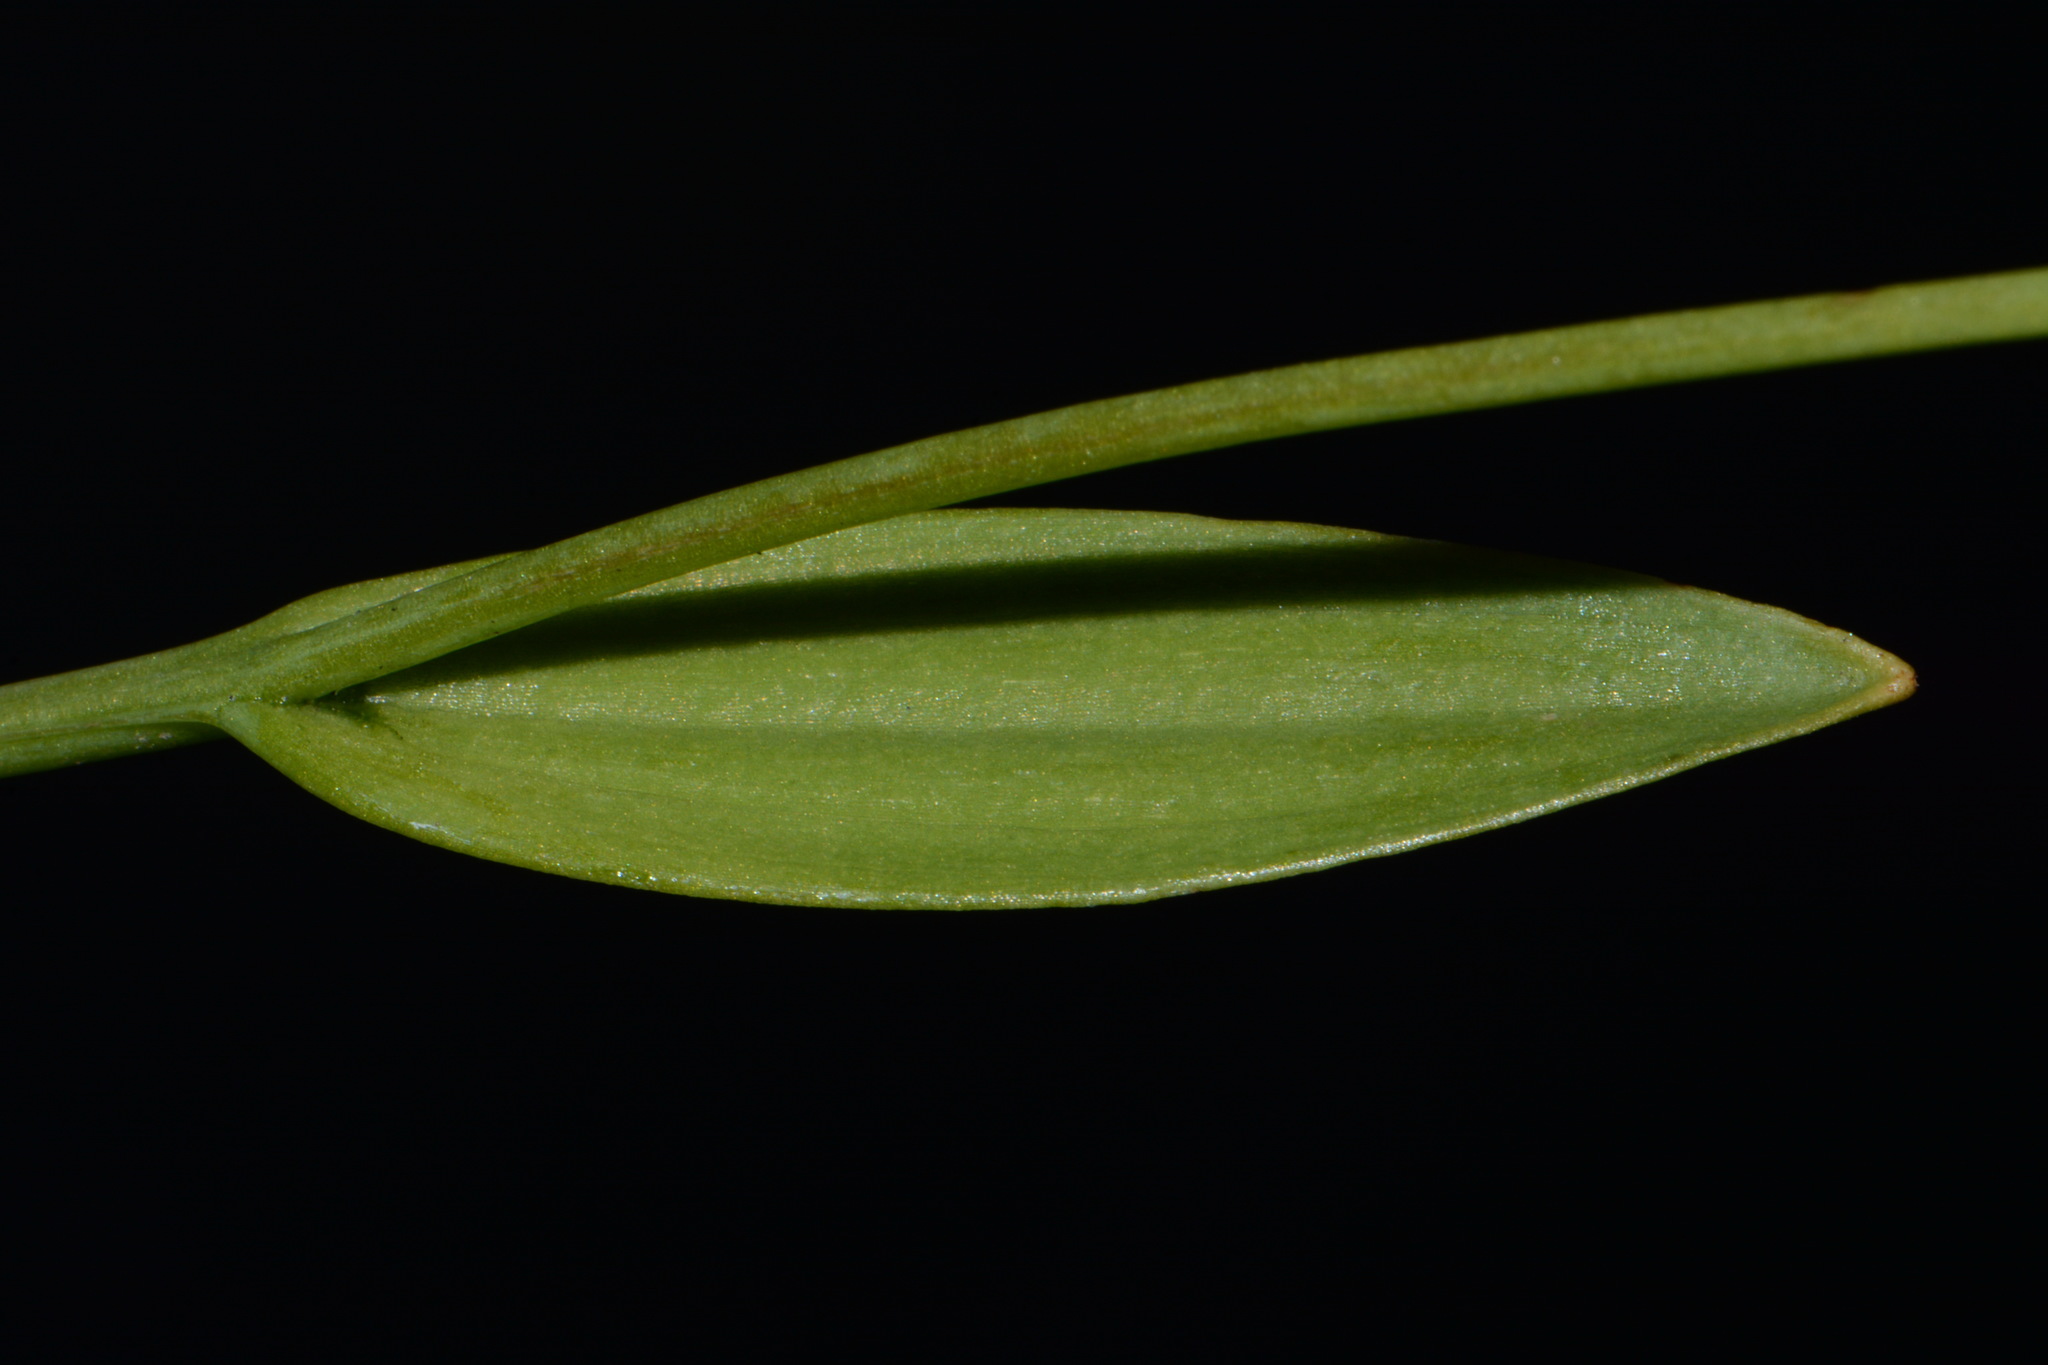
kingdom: Plantae
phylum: Tracheophyta
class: Liliopsida
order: Asparagales
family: Orchidaceae
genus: Pogonia
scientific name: Pogonia ophioglossoides
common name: Rose pogonia
